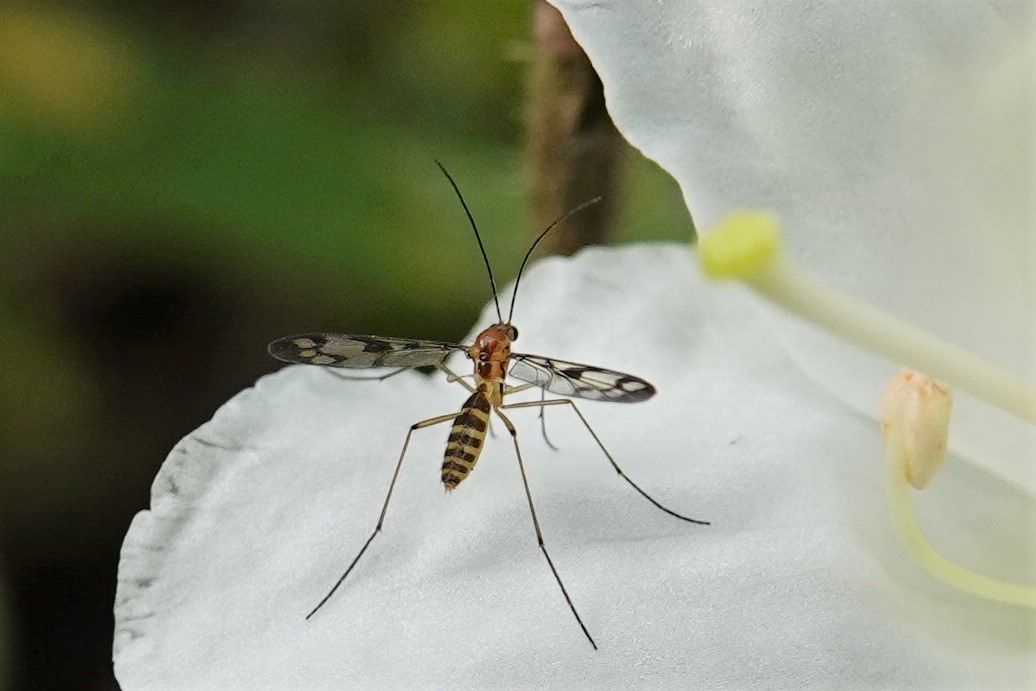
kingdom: Animalia
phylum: Arthropoda
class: Insecta
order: Diptera
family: Keroplatidae
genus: Chiasmoneura
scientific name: Chiasmoneura fenestrata
